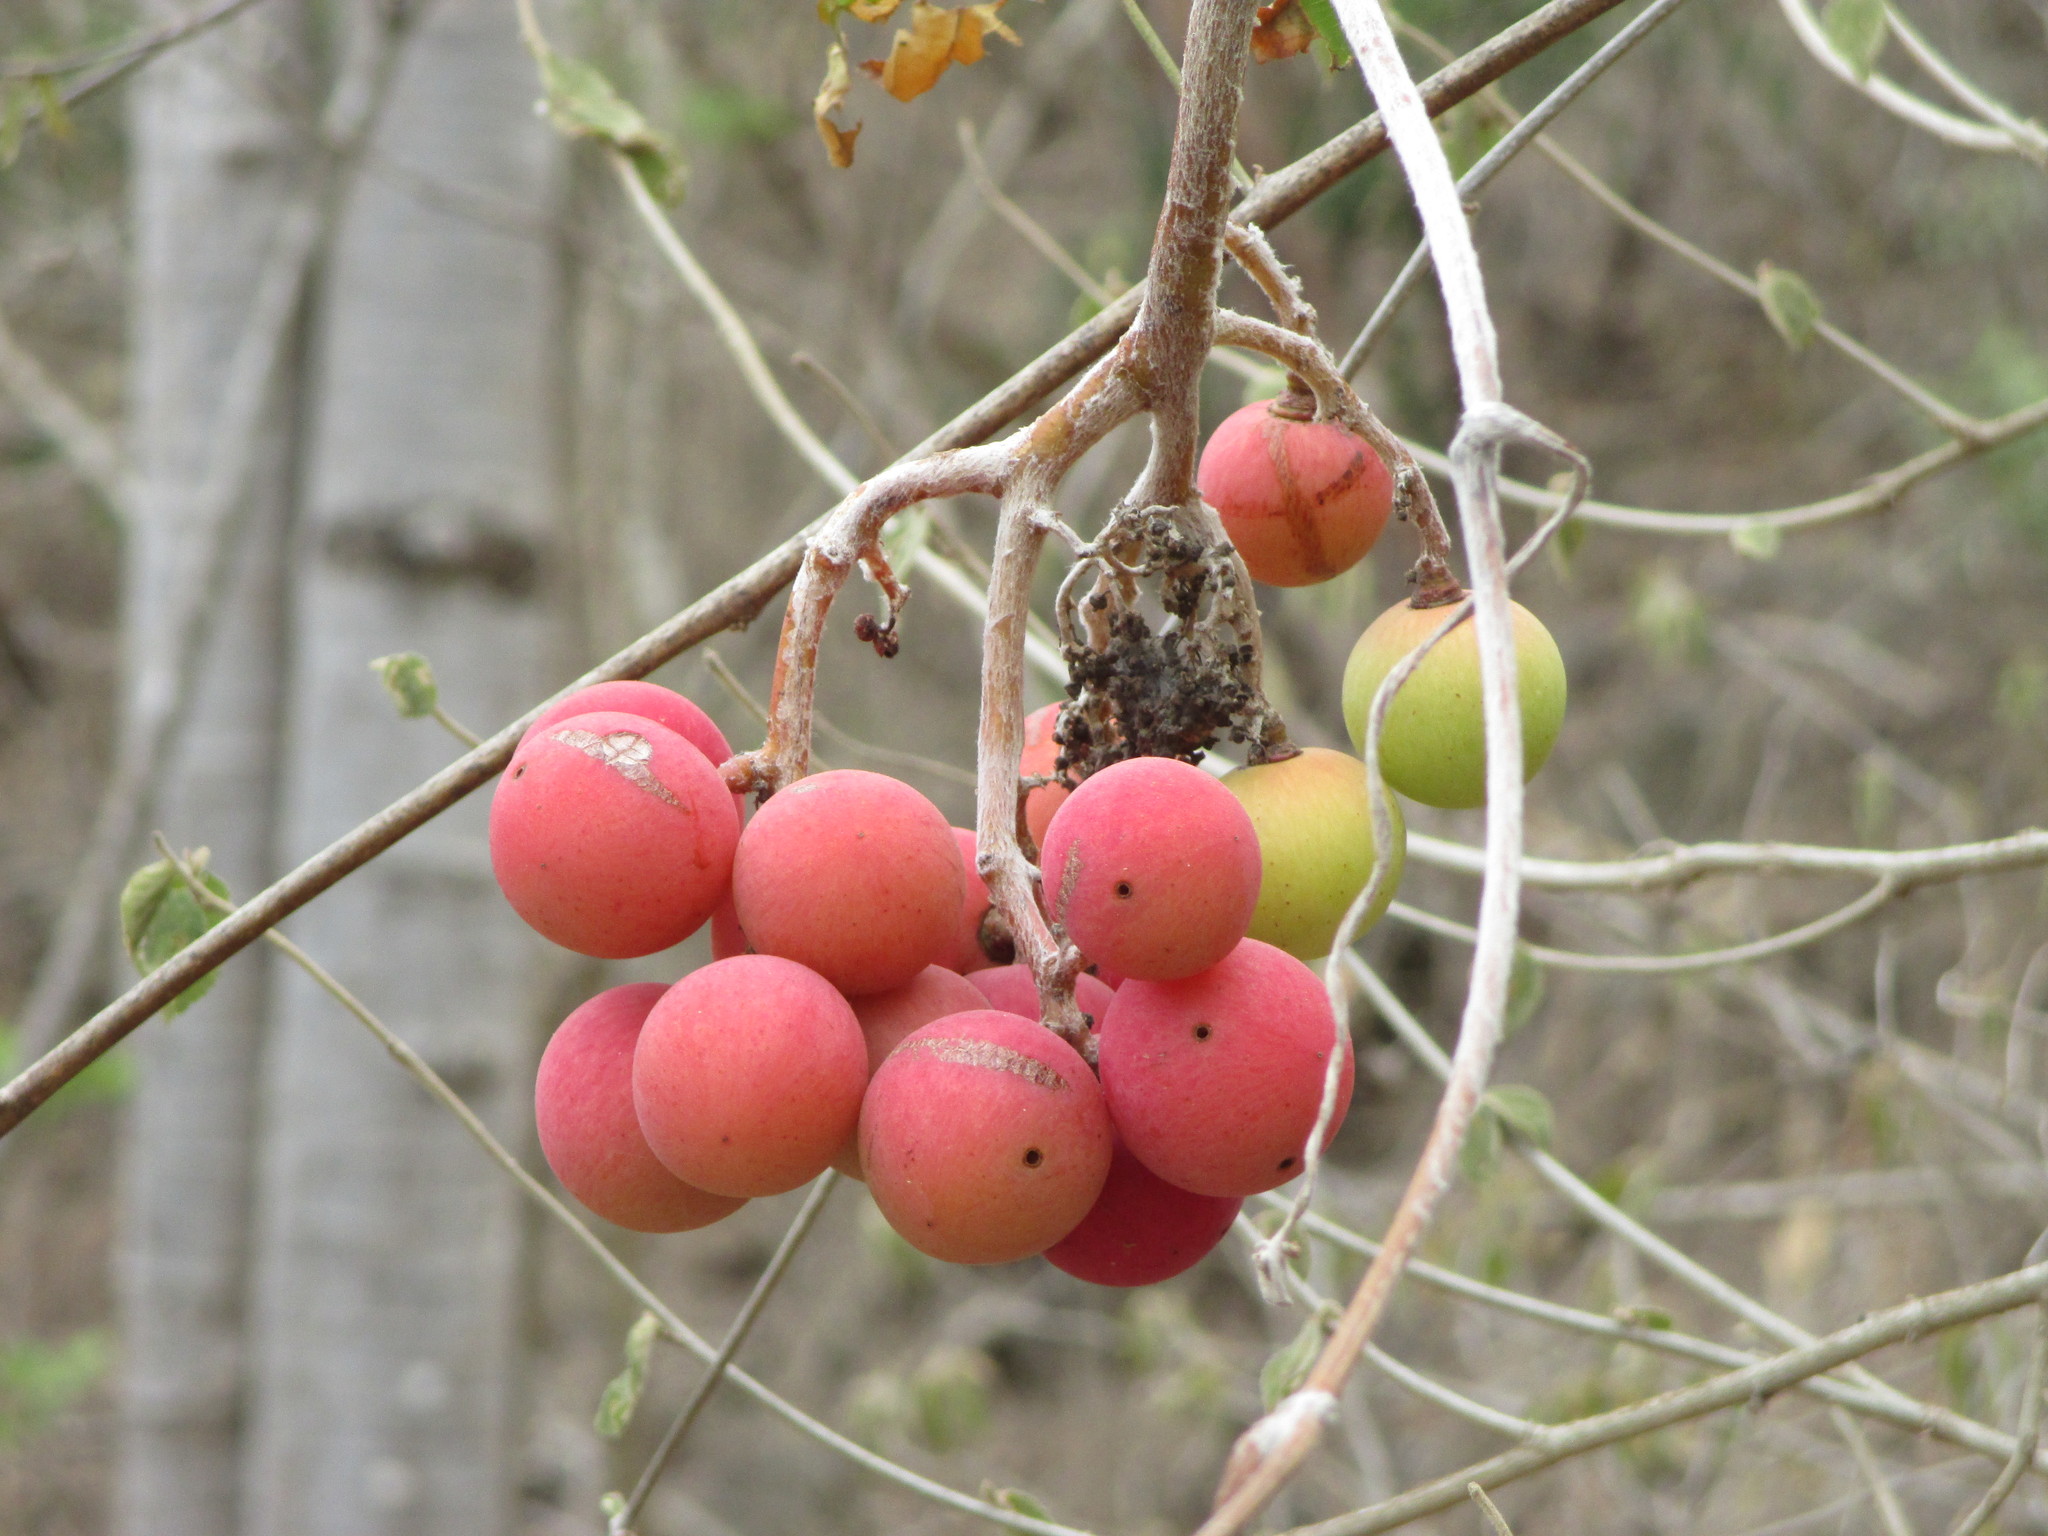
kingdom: Plantae
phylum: Tracheophyta
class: Magnoliopsida
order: Vitales
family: Vitaceae
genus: Ampelocissus
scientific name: Ampelocissus acapulcensis
